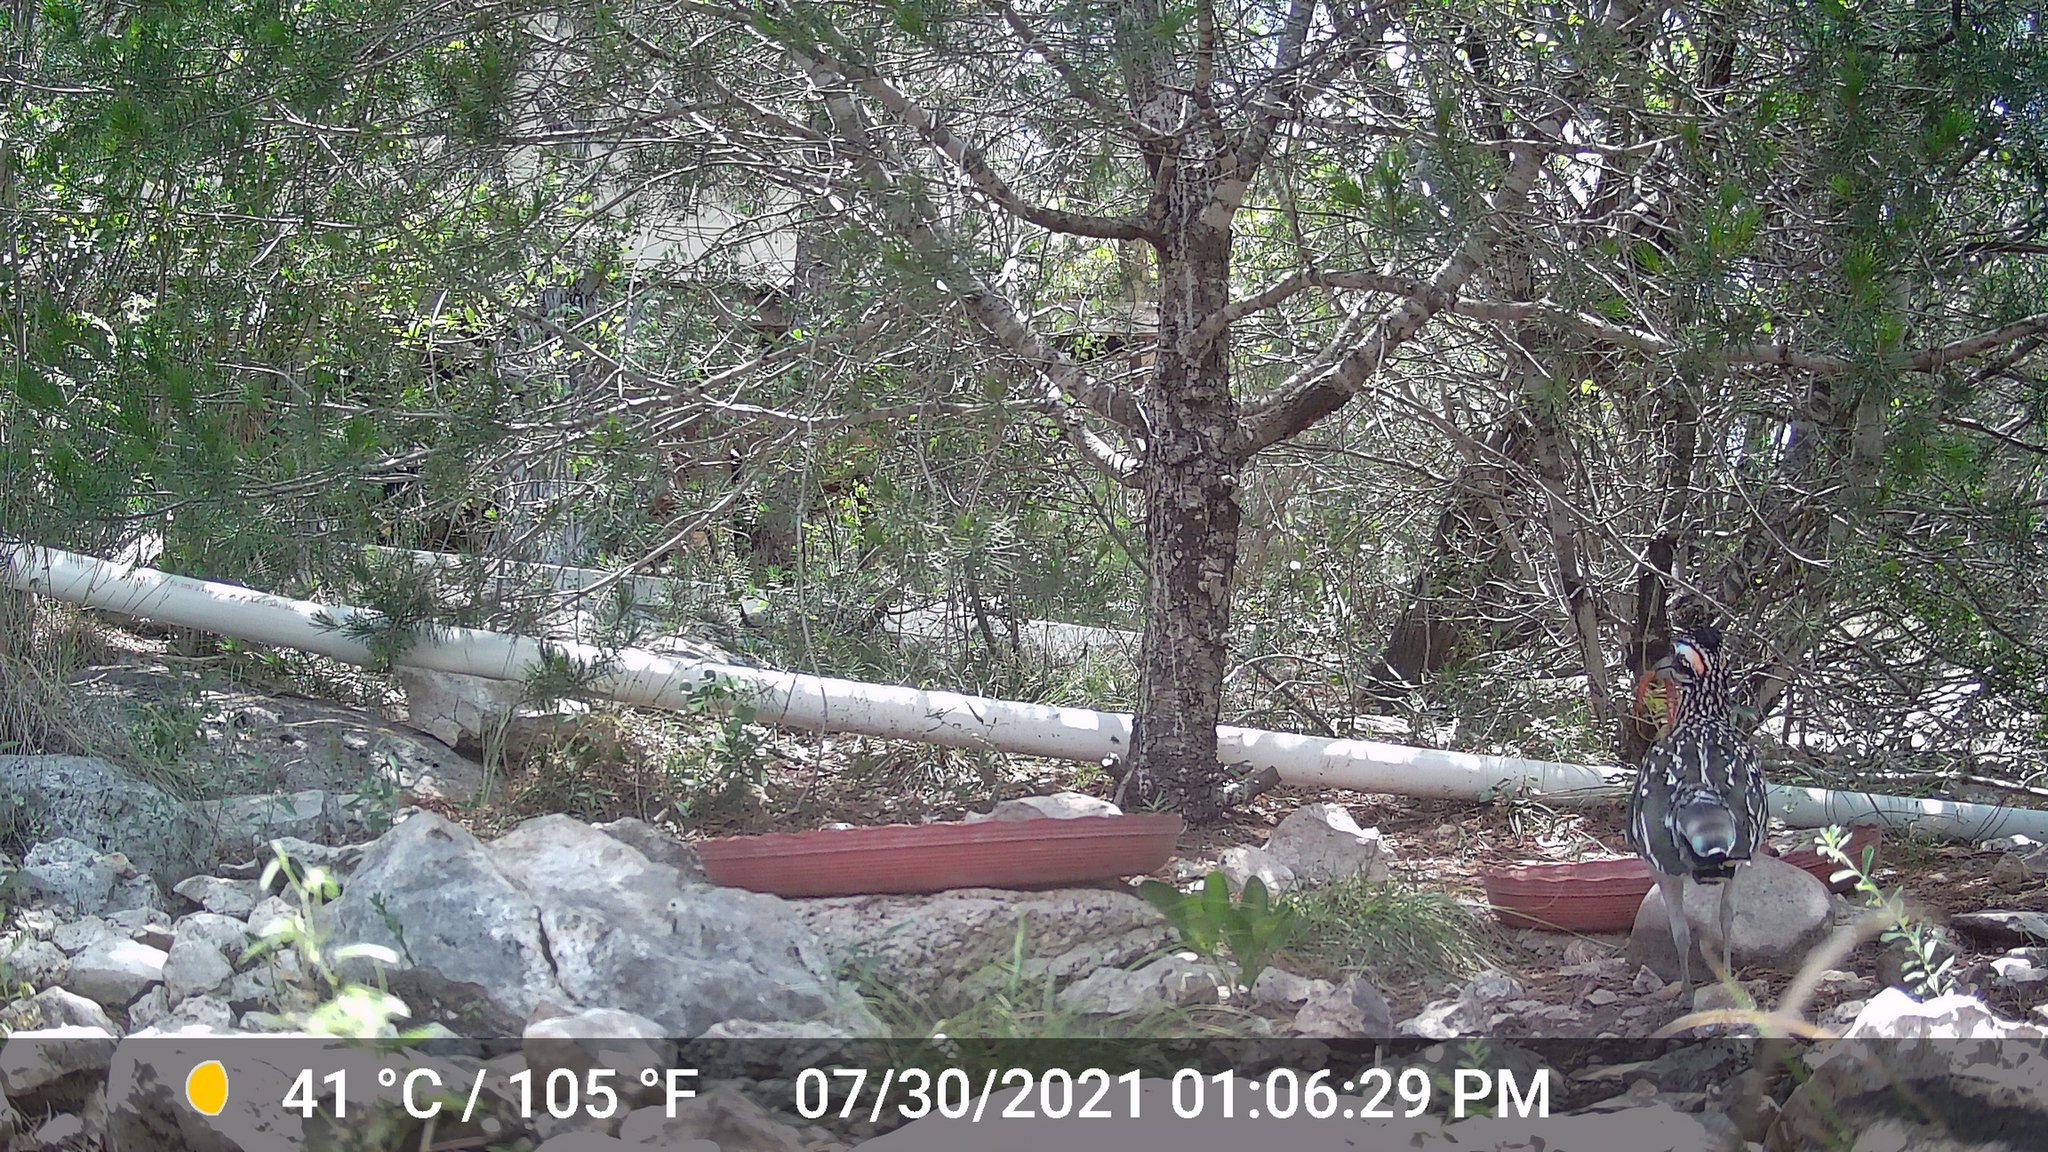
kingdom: Animalia
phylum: Chordata
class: Aves
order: Cuculiformes
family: Cuculidae
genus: Geococcyx
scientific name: Geococcyx californianus
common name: Greater roadrunner
